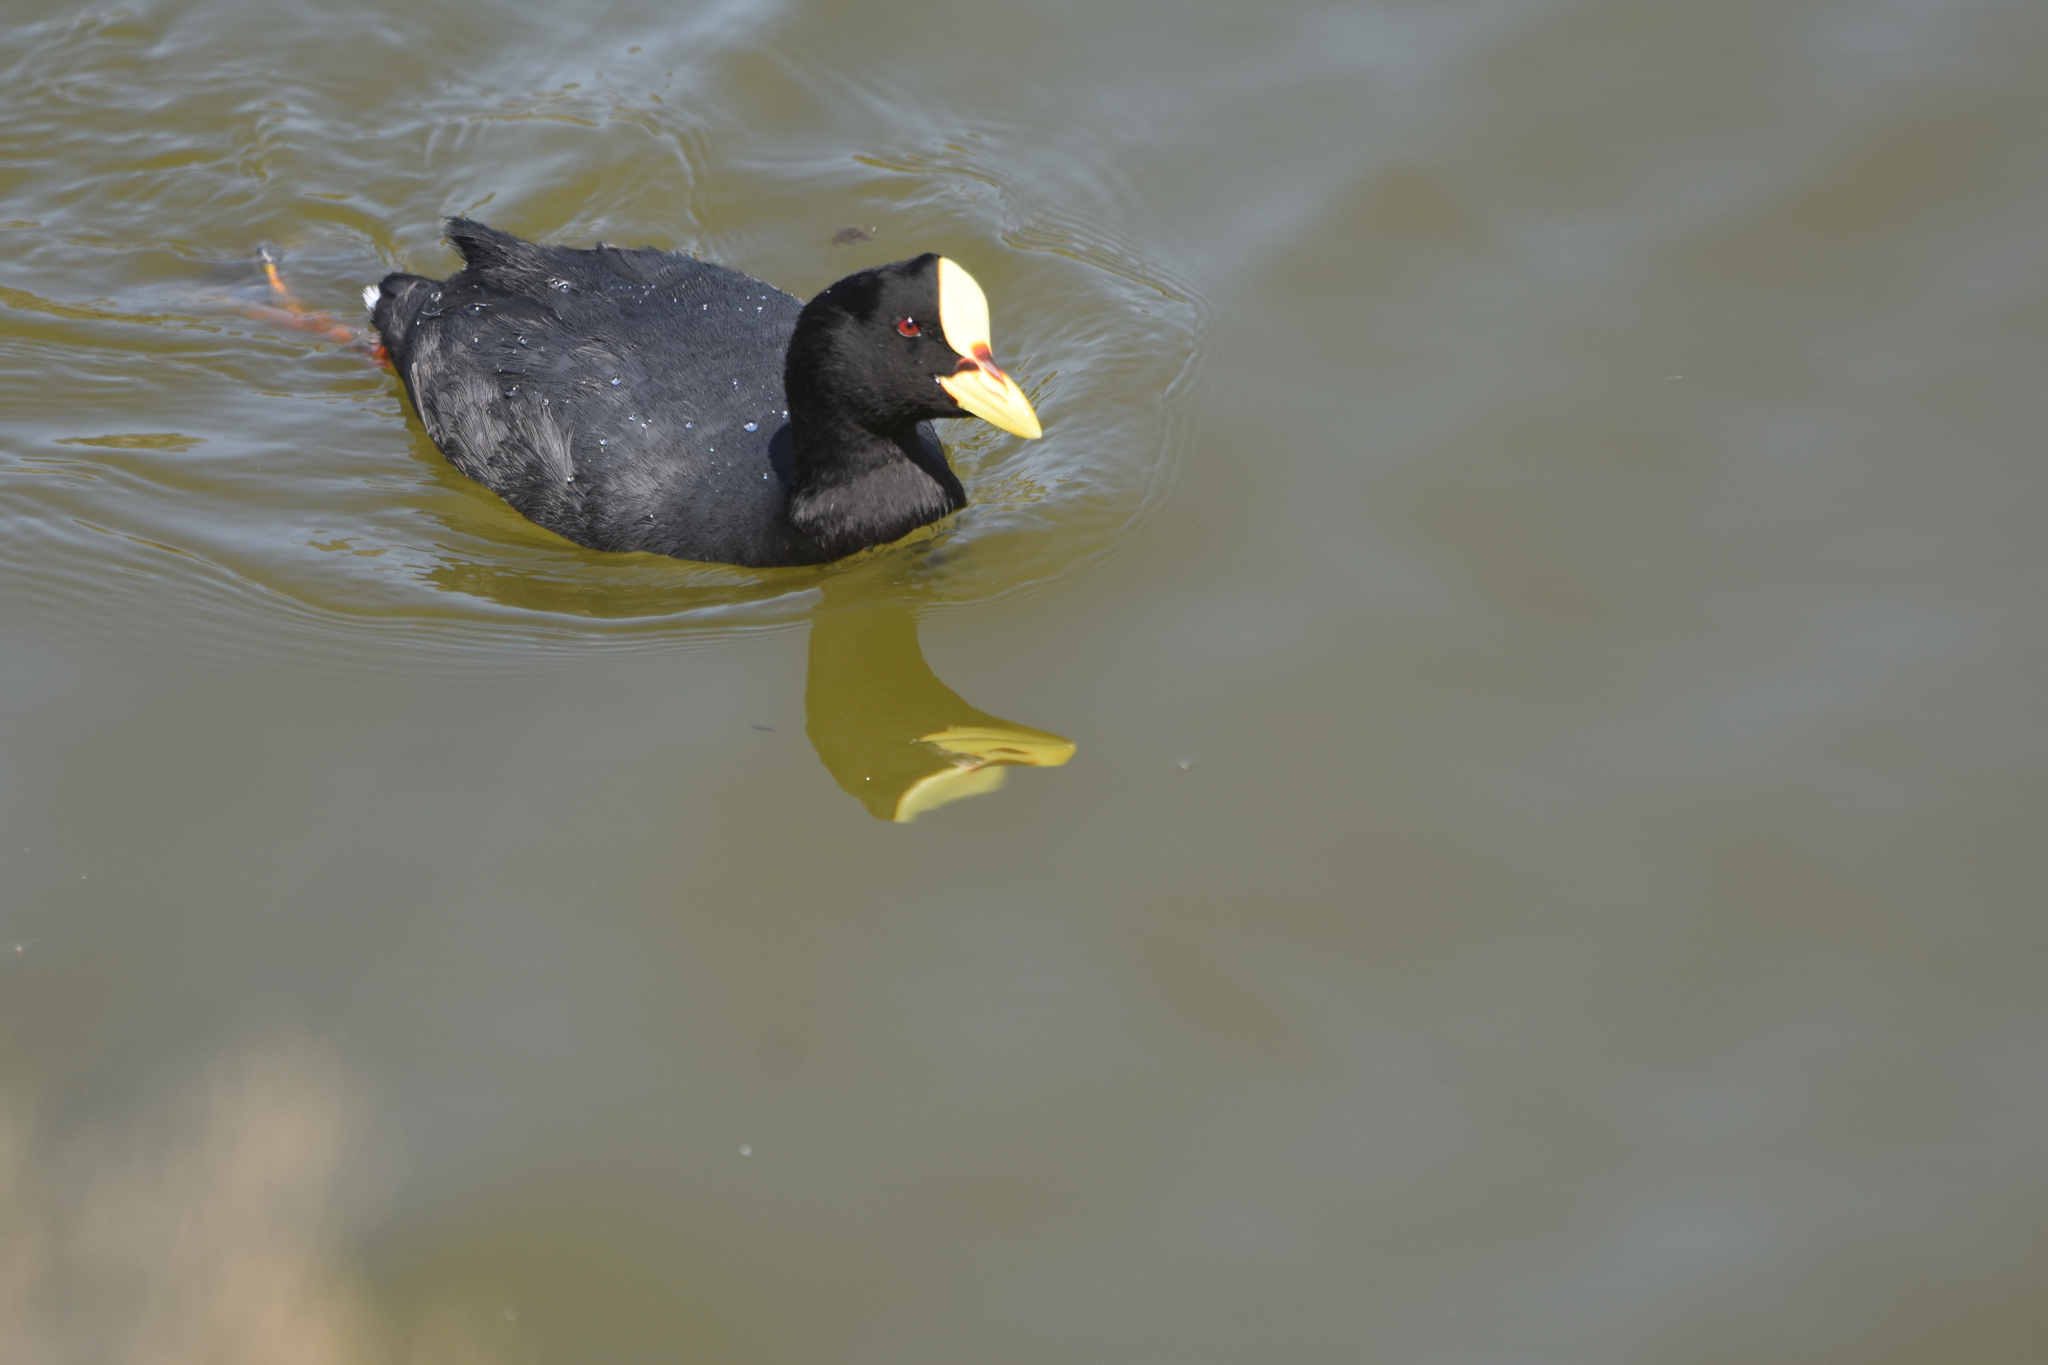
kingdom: Animalia
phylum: Chordata
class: Aves
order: Gruiformes
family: Rallidae
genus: Fulica
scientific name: Fulica armillata
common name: Red-gartered coot
